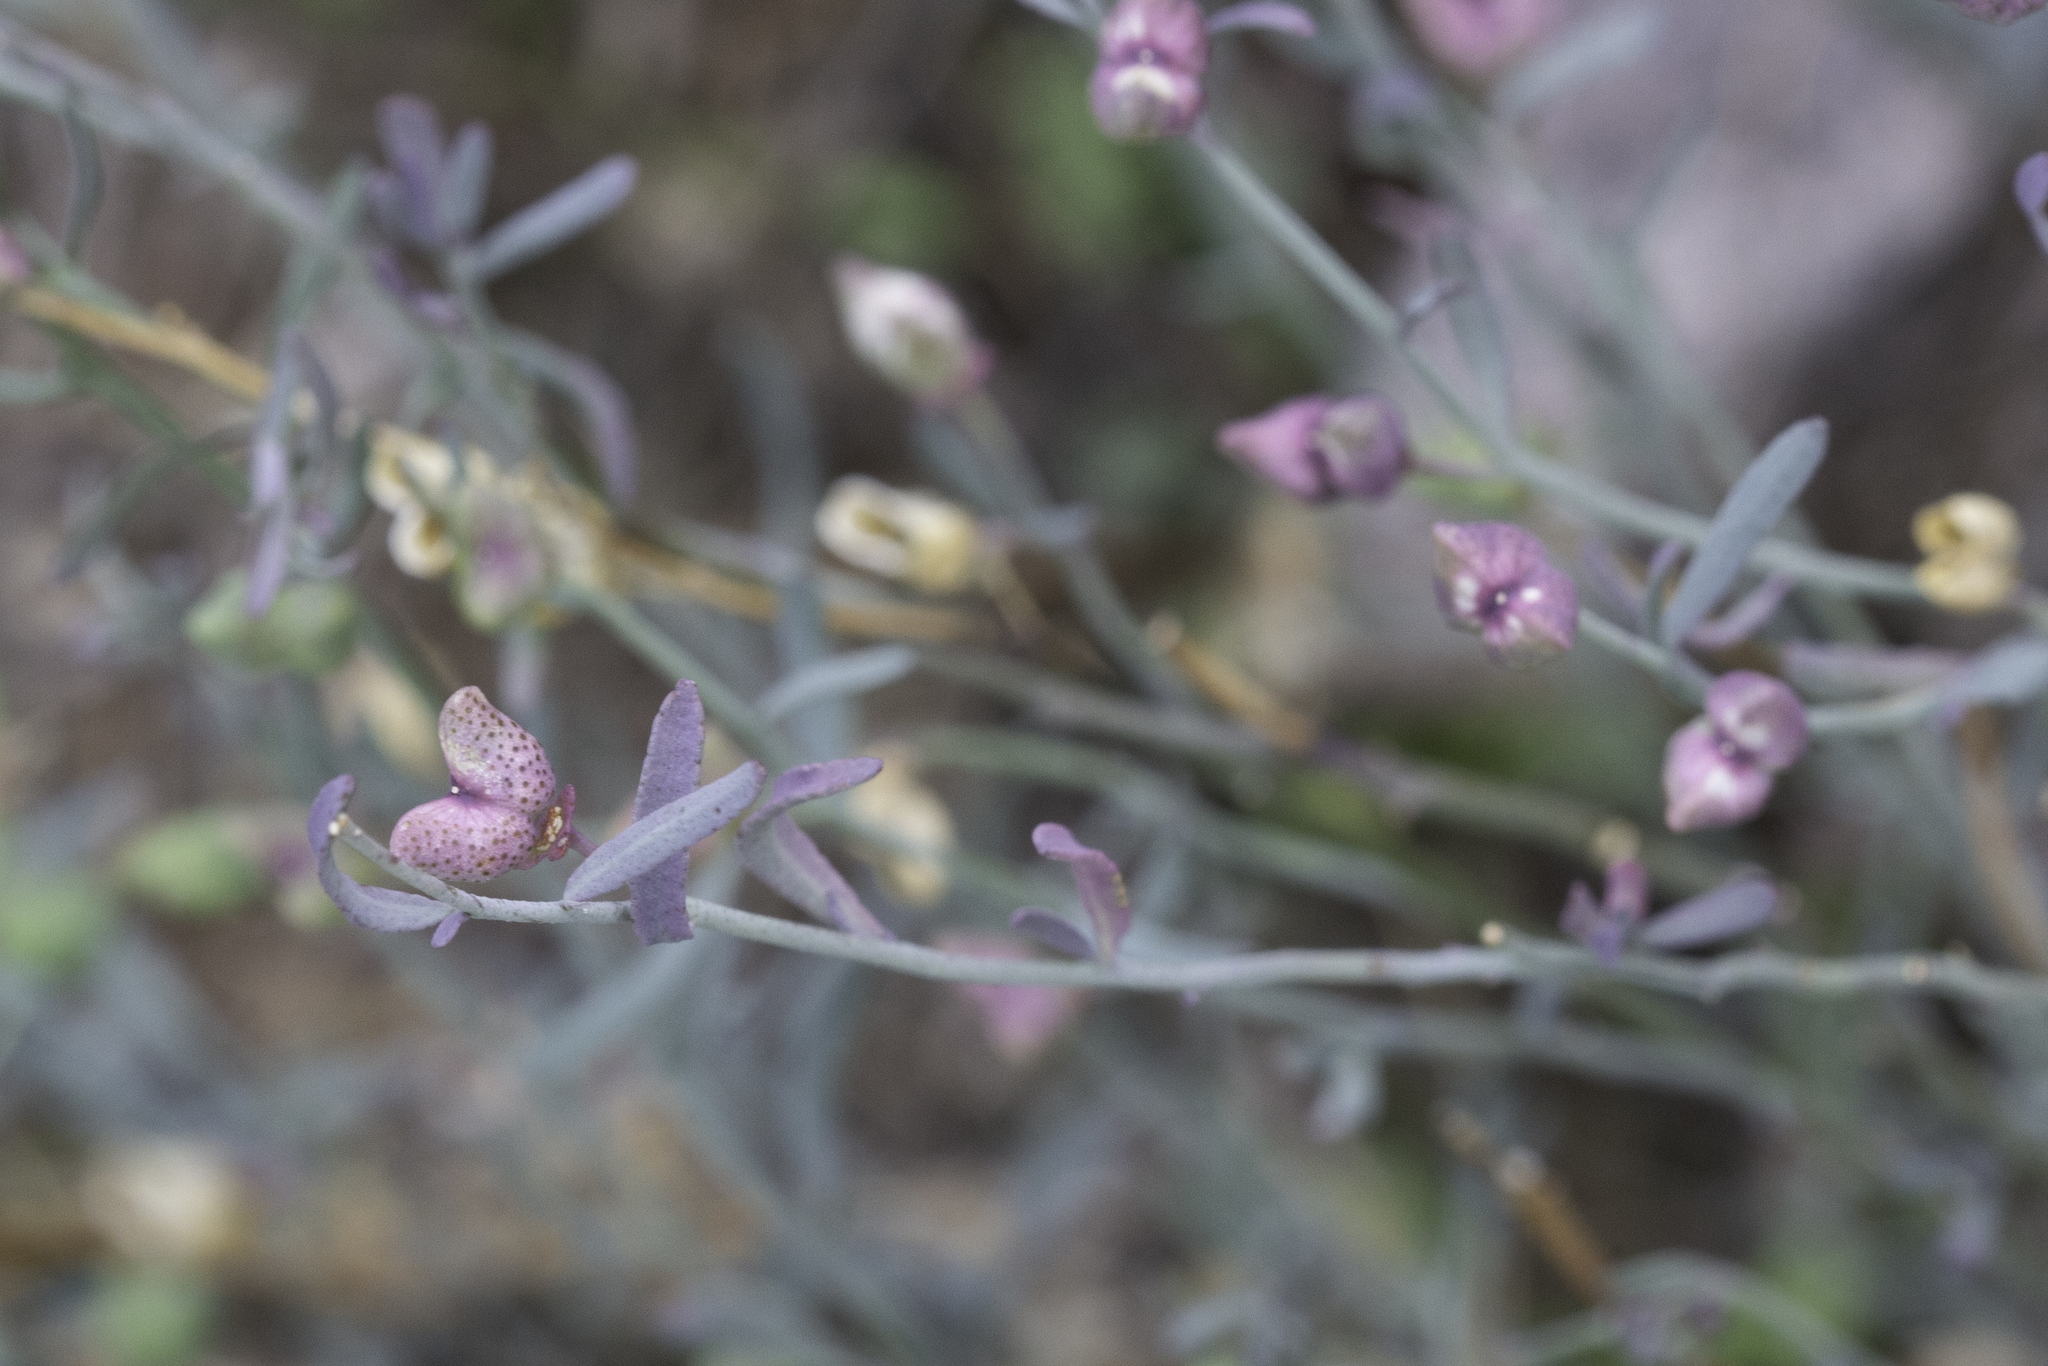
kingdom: Plantae
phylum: Tracheophyta
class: Magnoliopsida
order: Sapindales
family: Rutaceae
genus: Thamnosma
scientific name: Thamnosma texana
